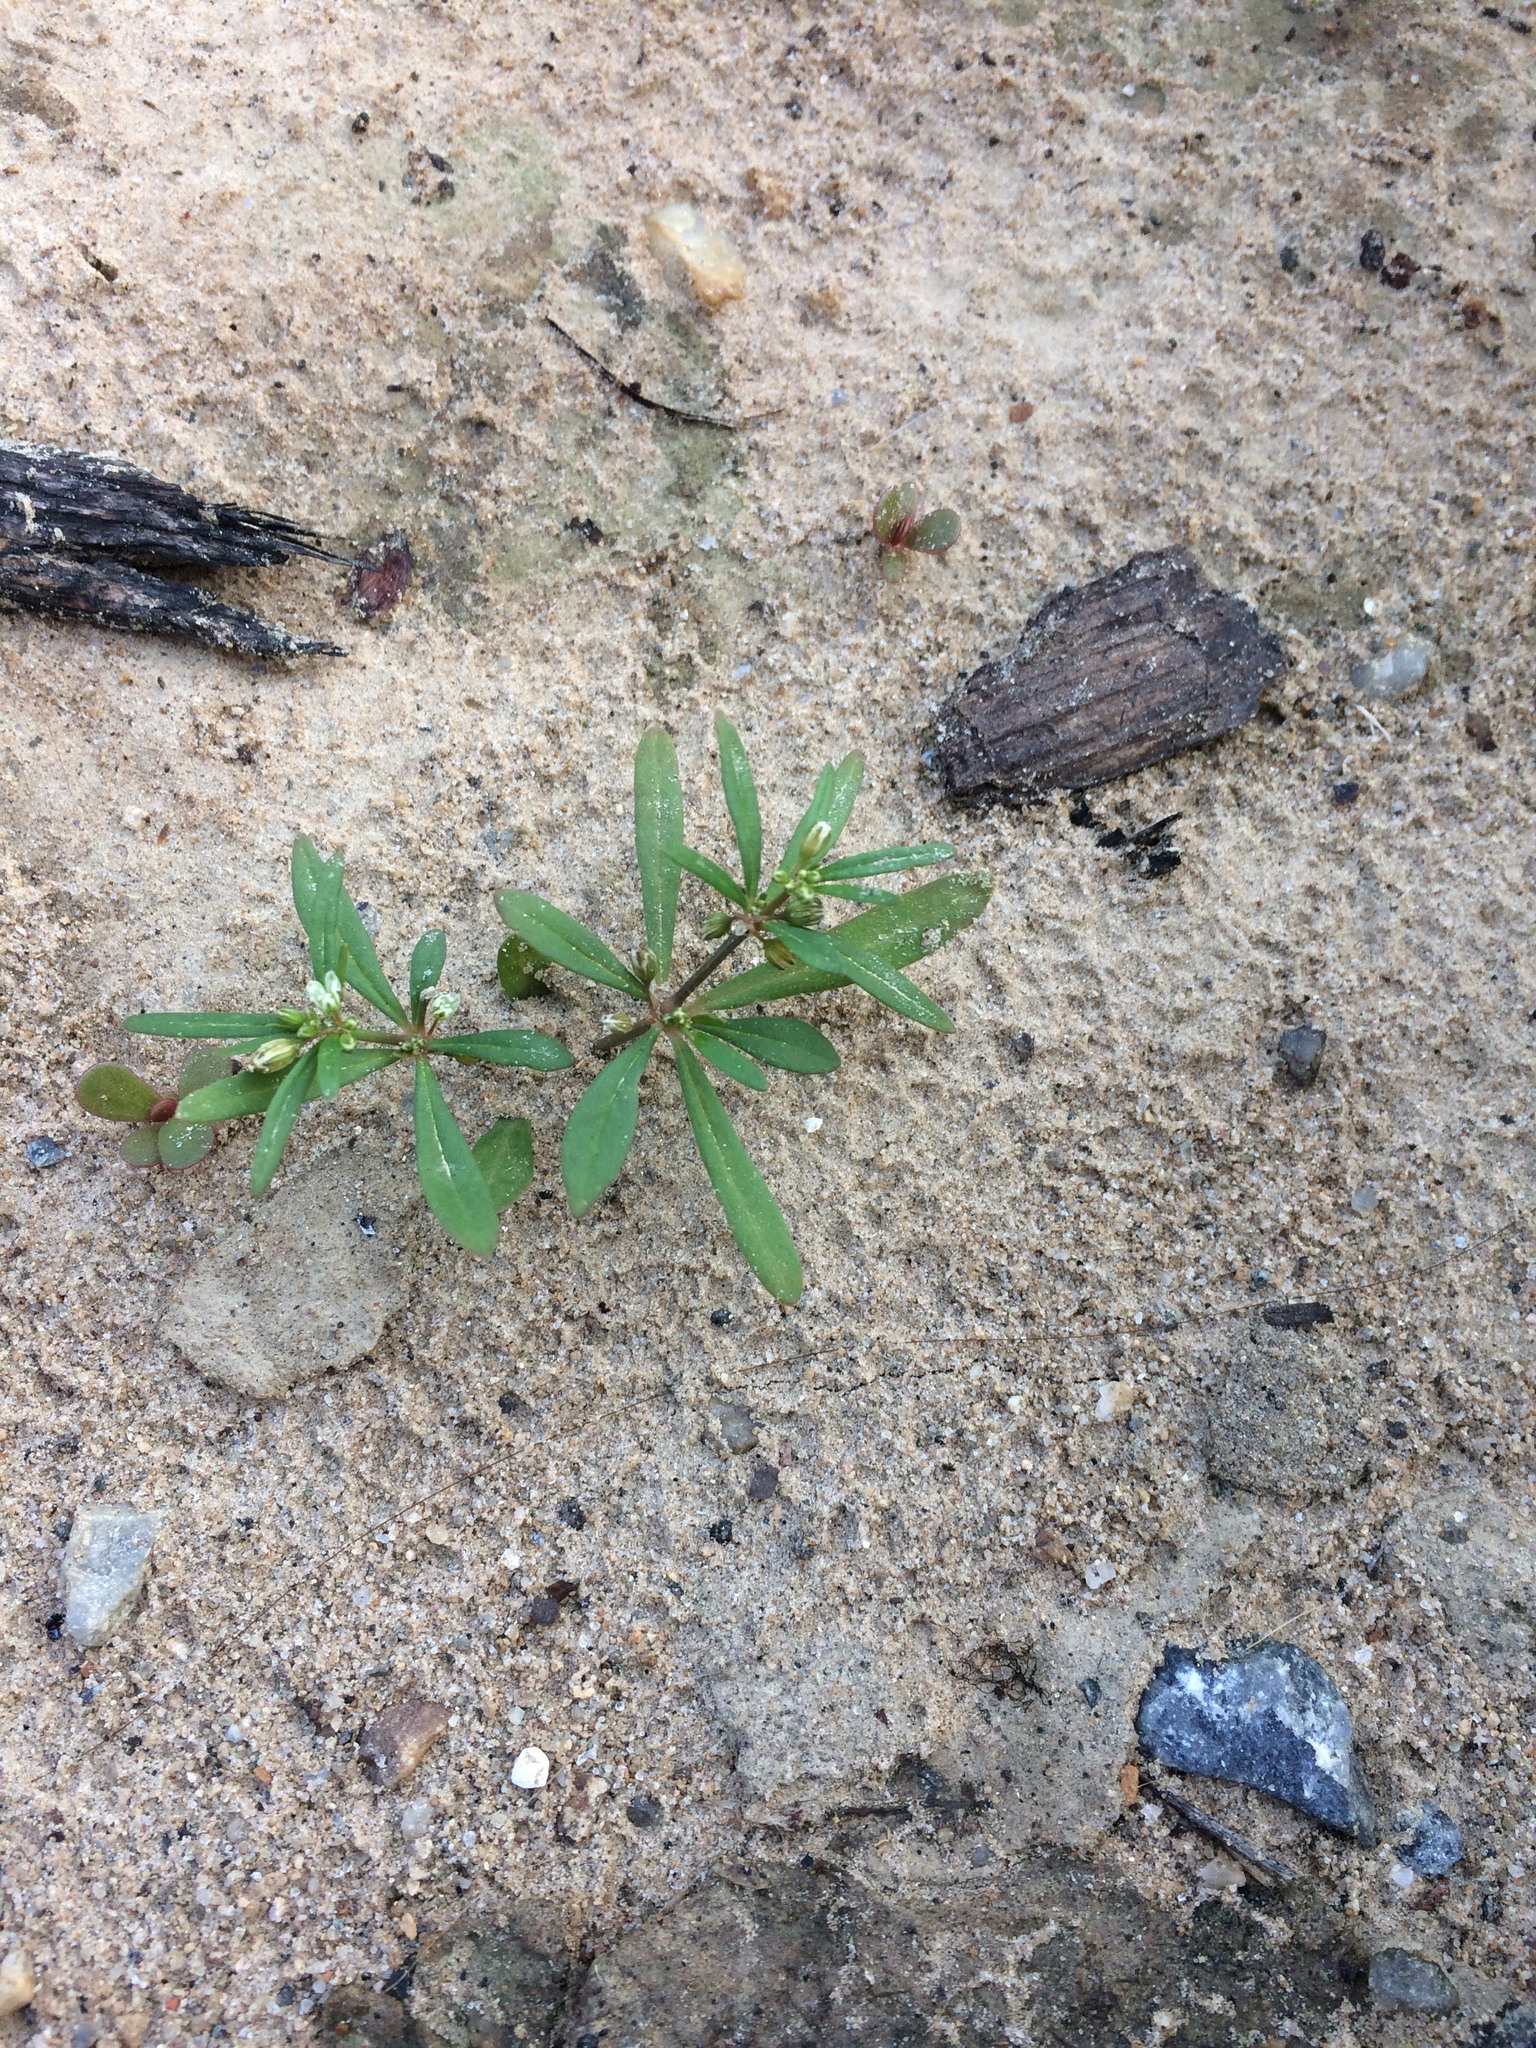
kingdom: Plantae
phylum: Tracheophyta
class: Magnoliopsida
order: Caryophyllales
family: Molluginaceae
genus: Mollugo
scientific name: Mollugo verticillata
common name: Green carpetweed
